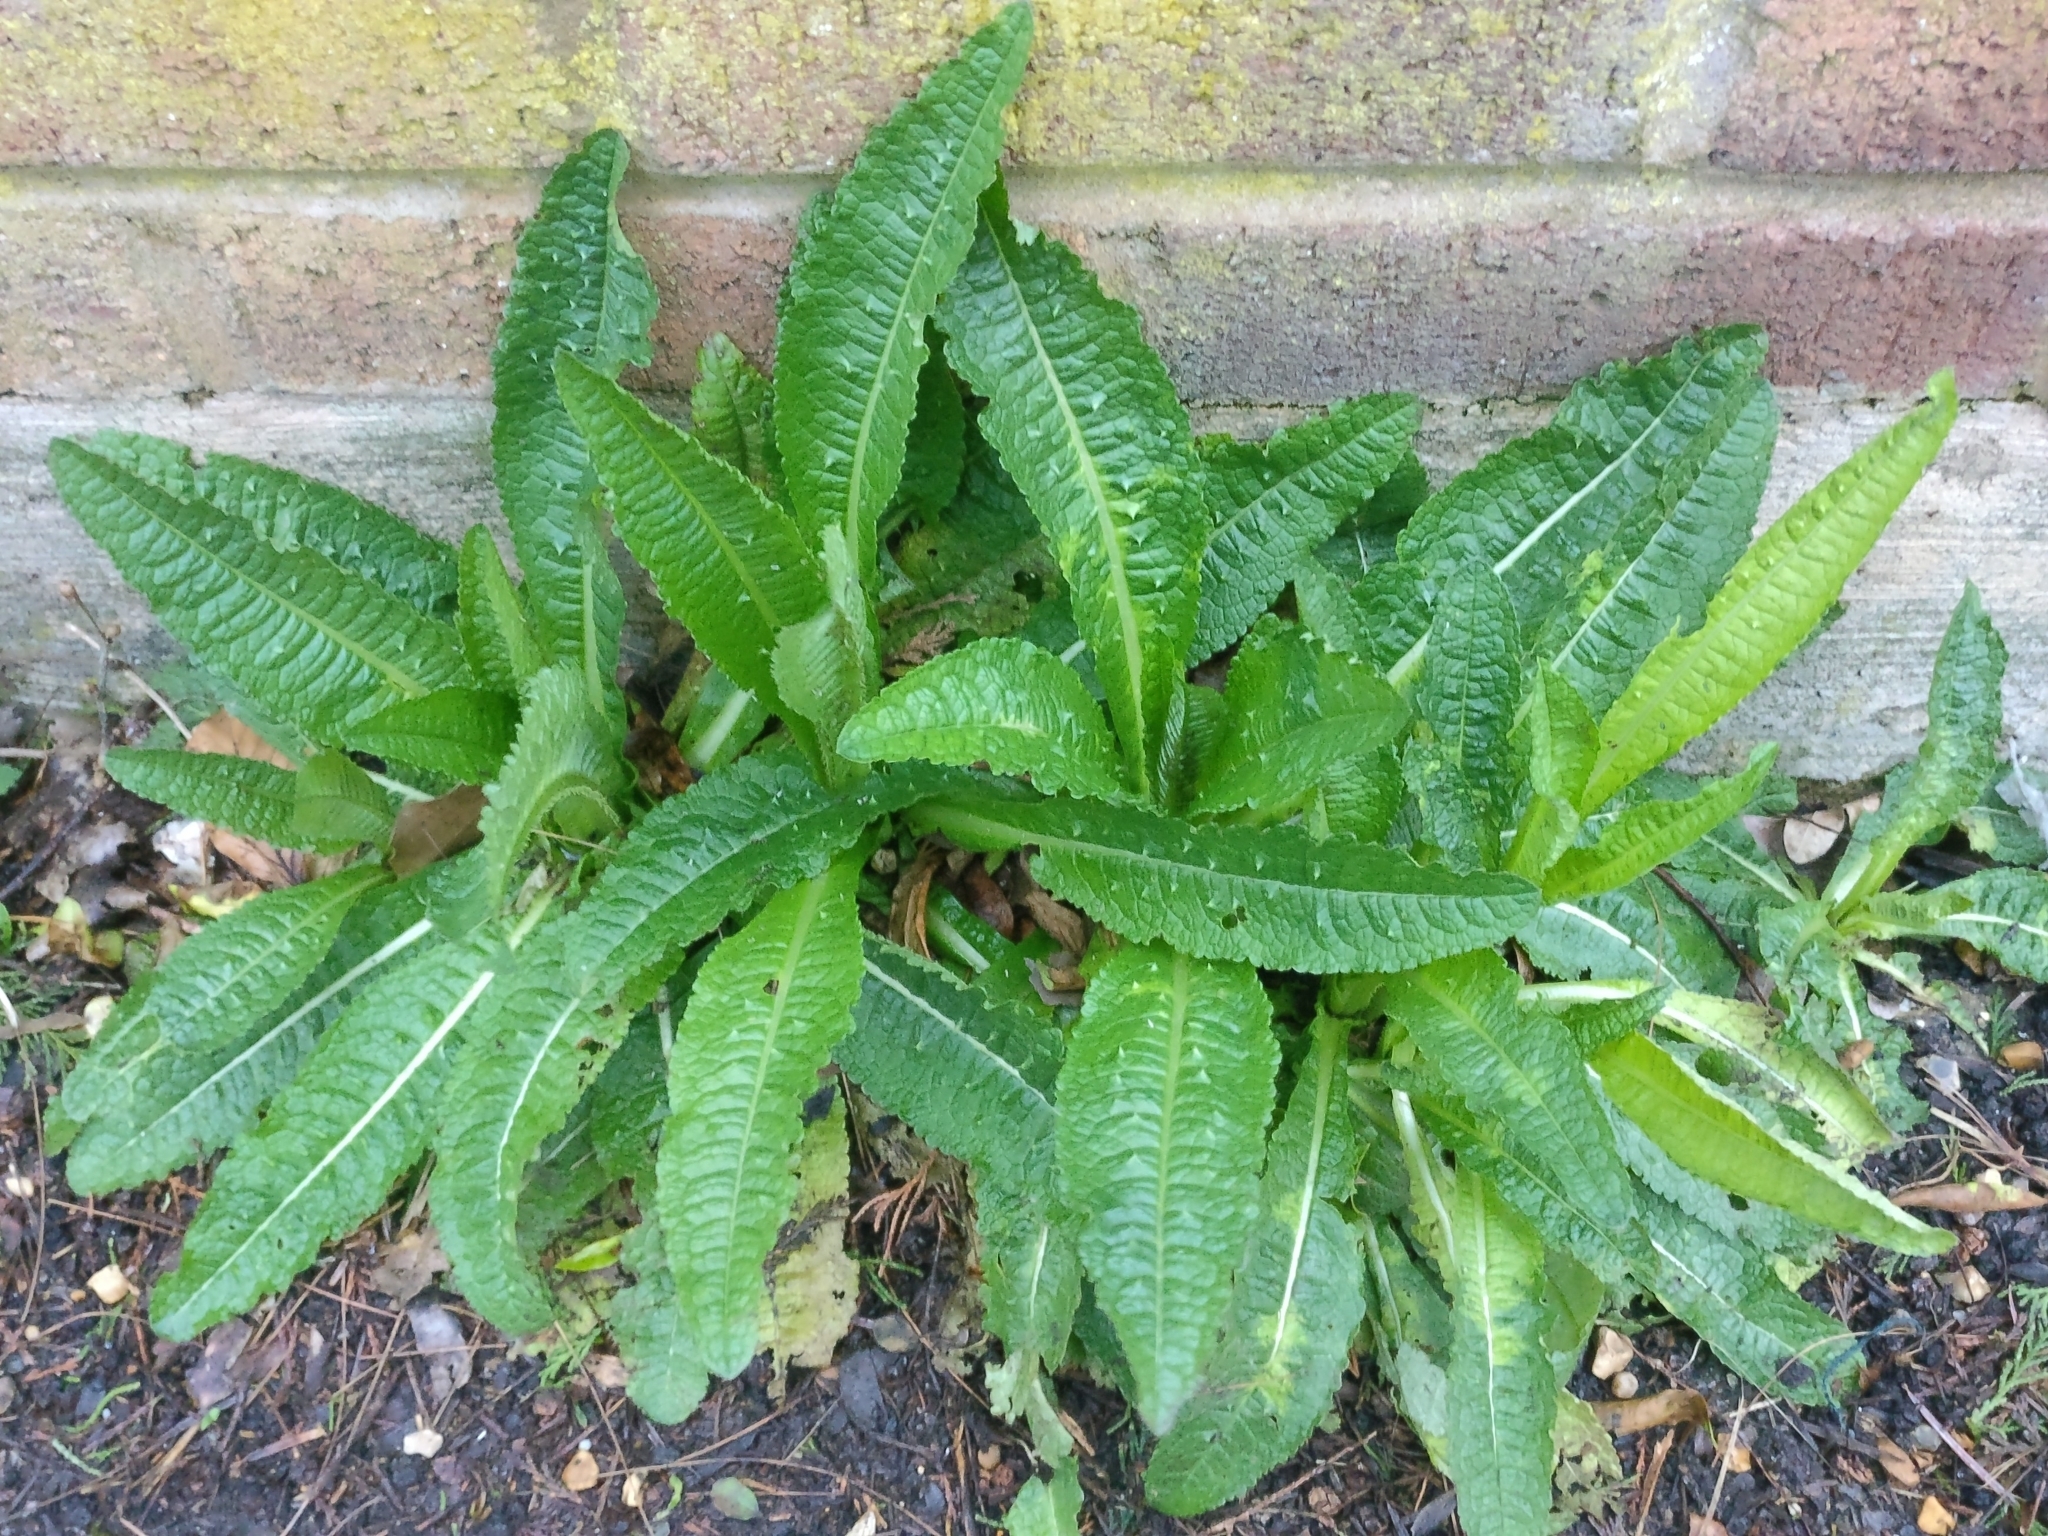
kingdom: Plantae
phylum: Tracheophyta
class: Magnoliopsida
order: Dipsacales
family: Caprifoliaceae
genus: Dipsacus
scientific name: Dipsacus fullonum
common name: Teasel
